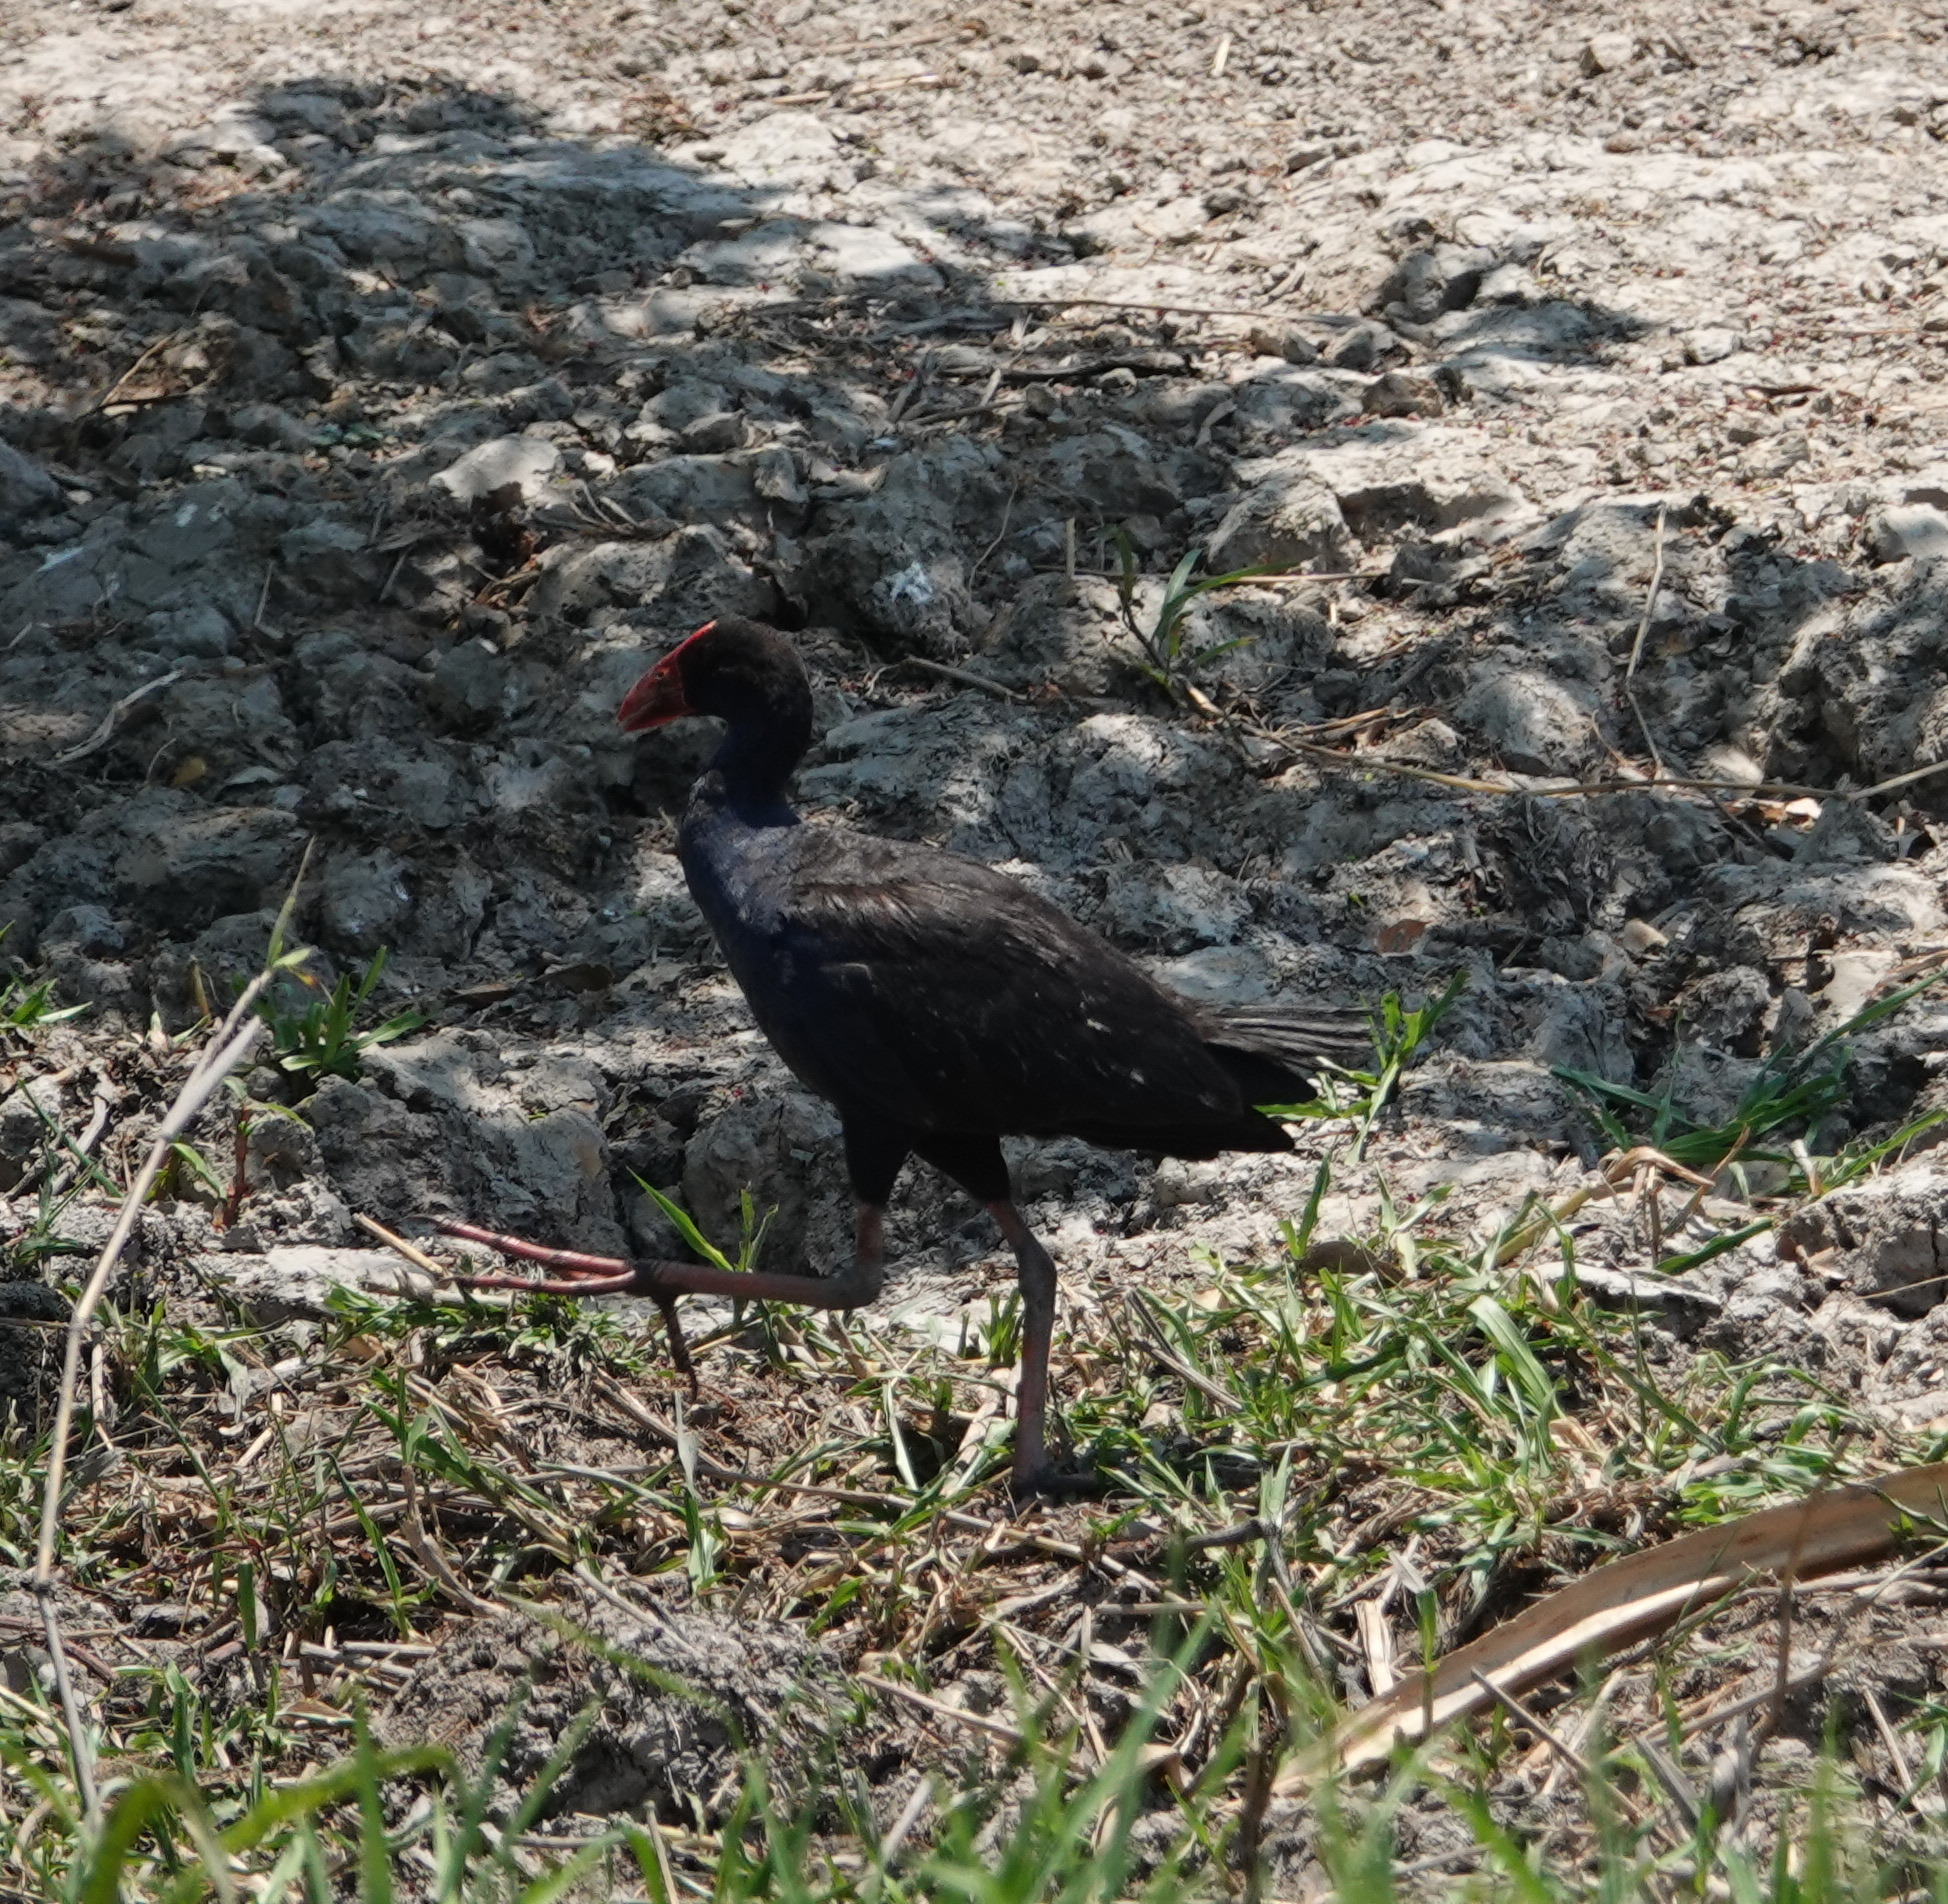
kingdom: Animalia
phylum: Chordata
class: Aves
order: Gruiformes
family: Rallidae
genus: Porphyrio
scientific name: Porphyrio melanotus
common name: Australasian swamphen
